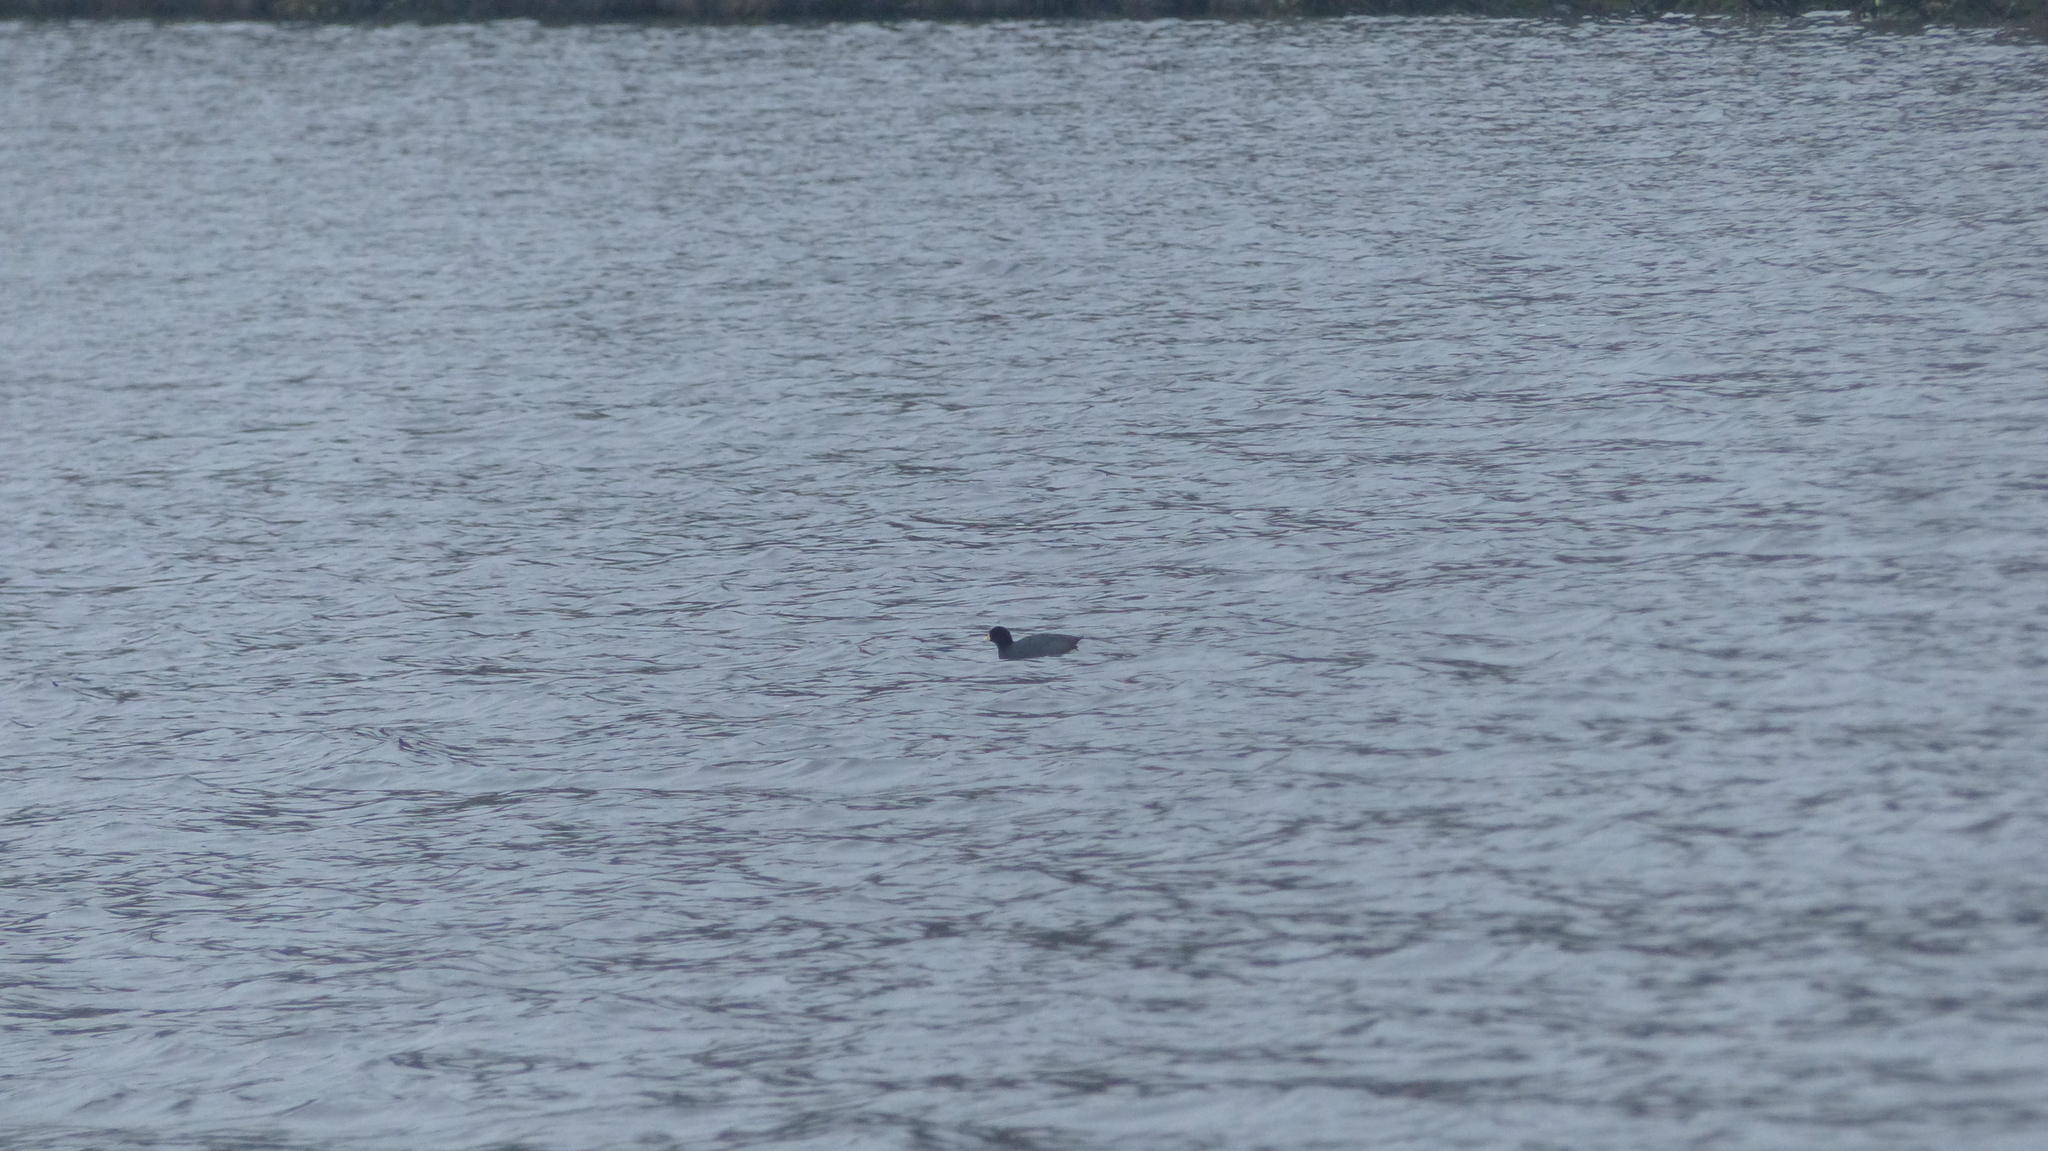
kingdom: Animalia
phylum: Chordata
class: Aves
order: Gruiformes
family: Rallidae
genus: Fulica
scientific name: Fulica americana
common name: American coot
